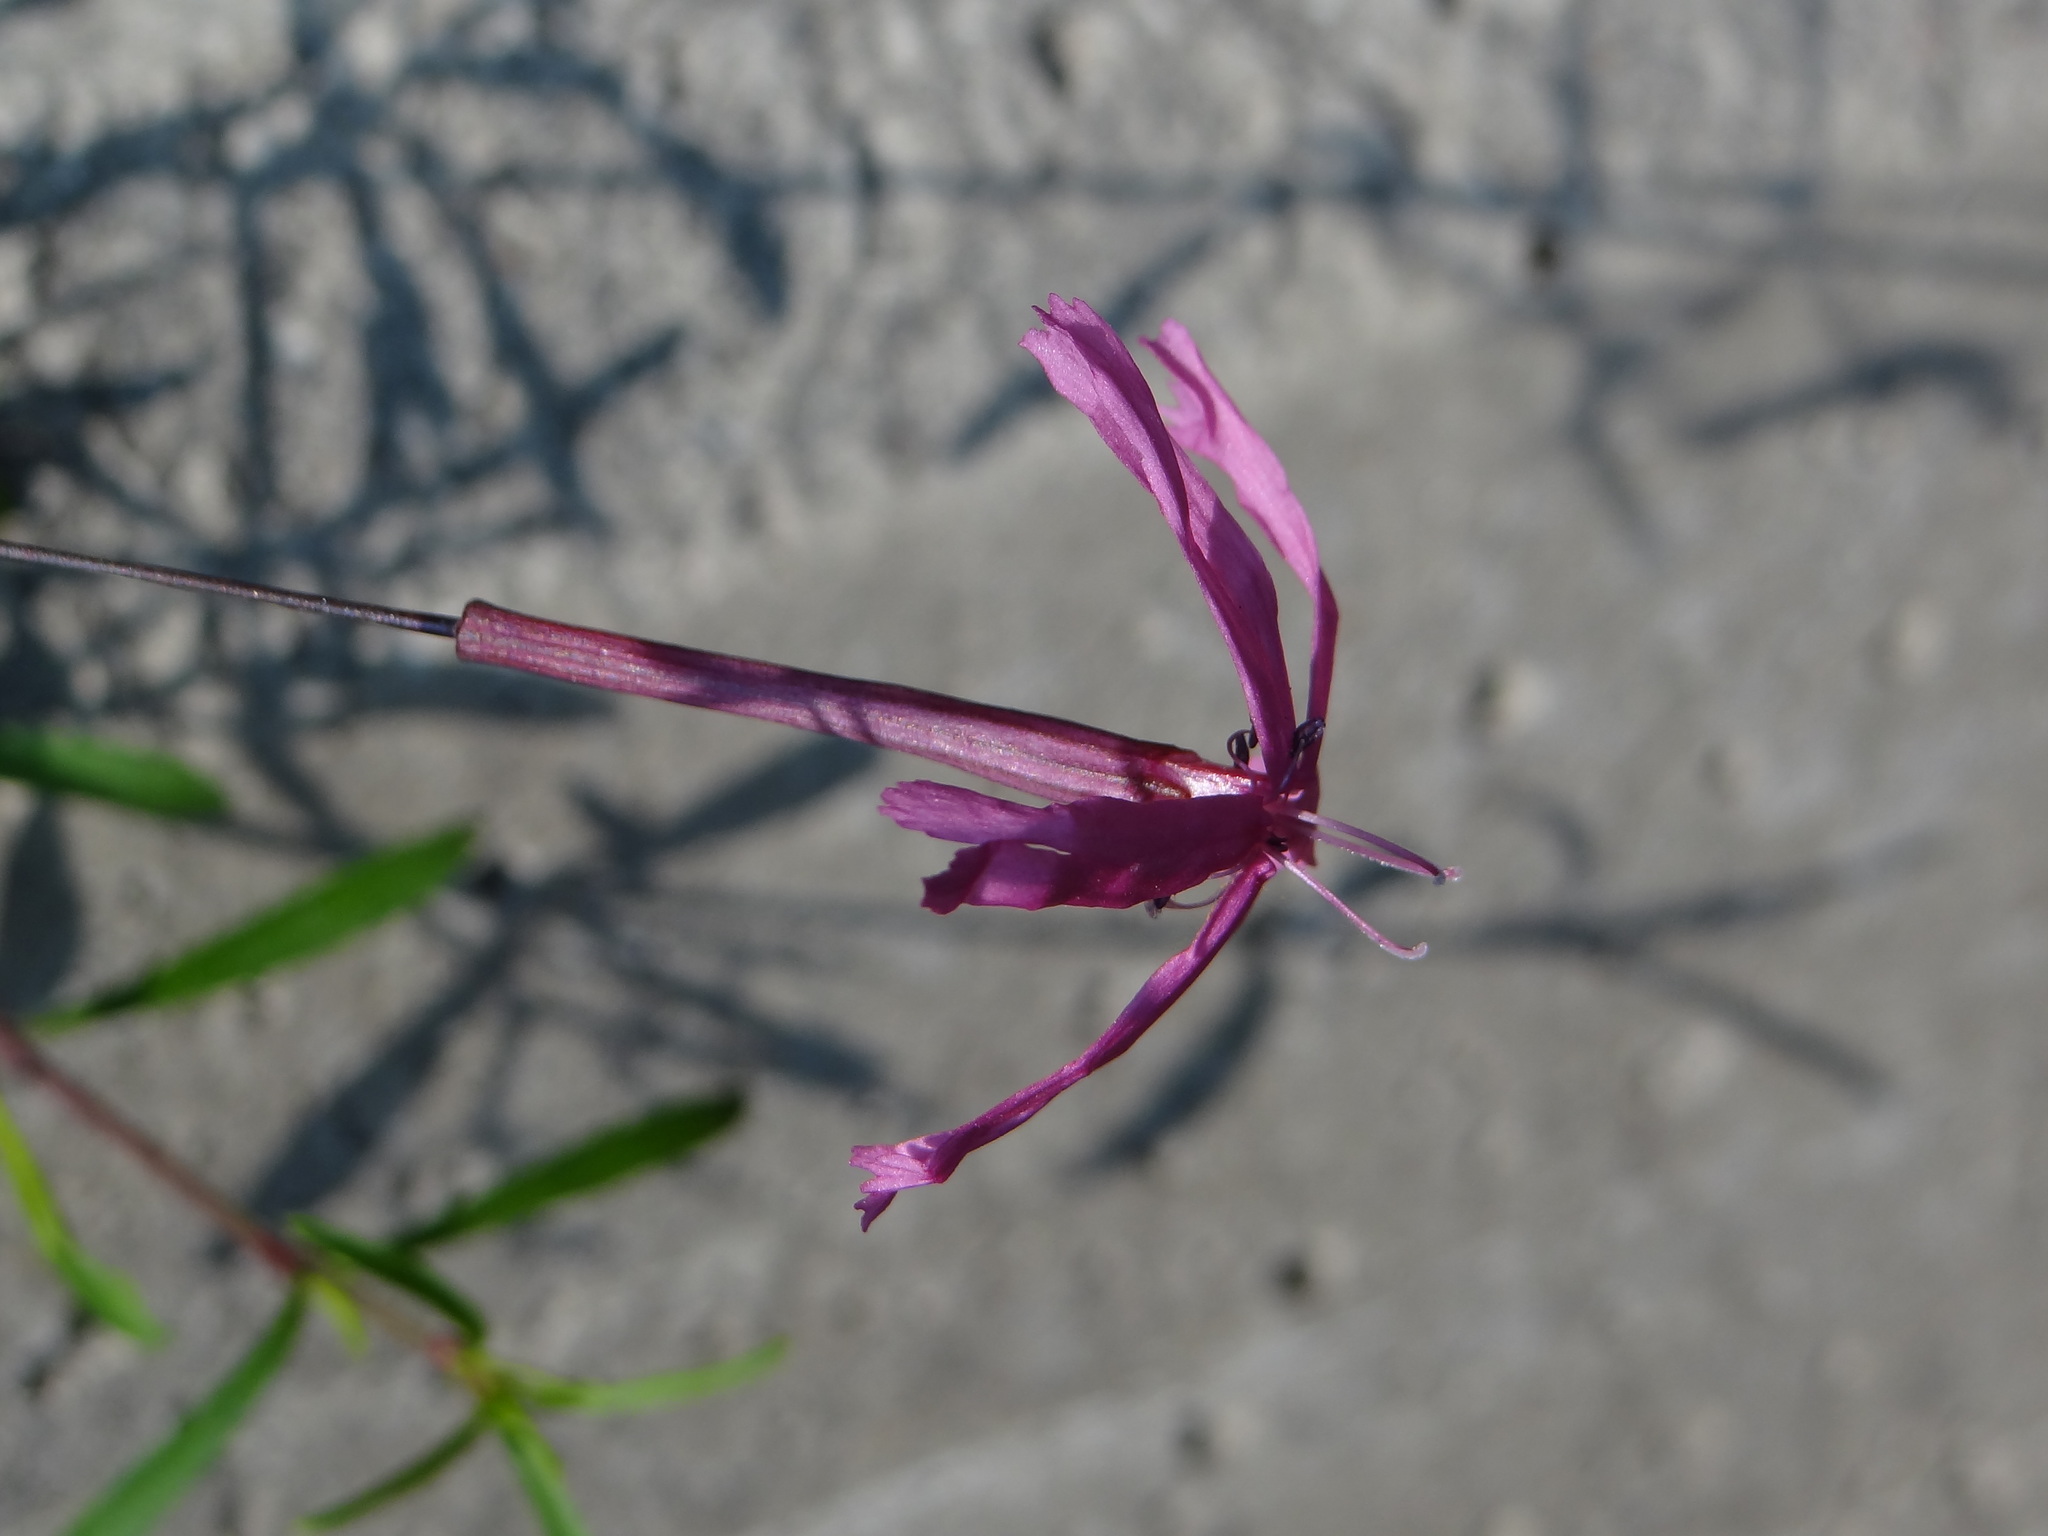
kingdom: Plantae
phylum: Tracheophyta
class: Magnoliopsida
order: Caryophyllales
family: Caryophyllaceae
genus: Silene
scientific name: Silene fissipetala
